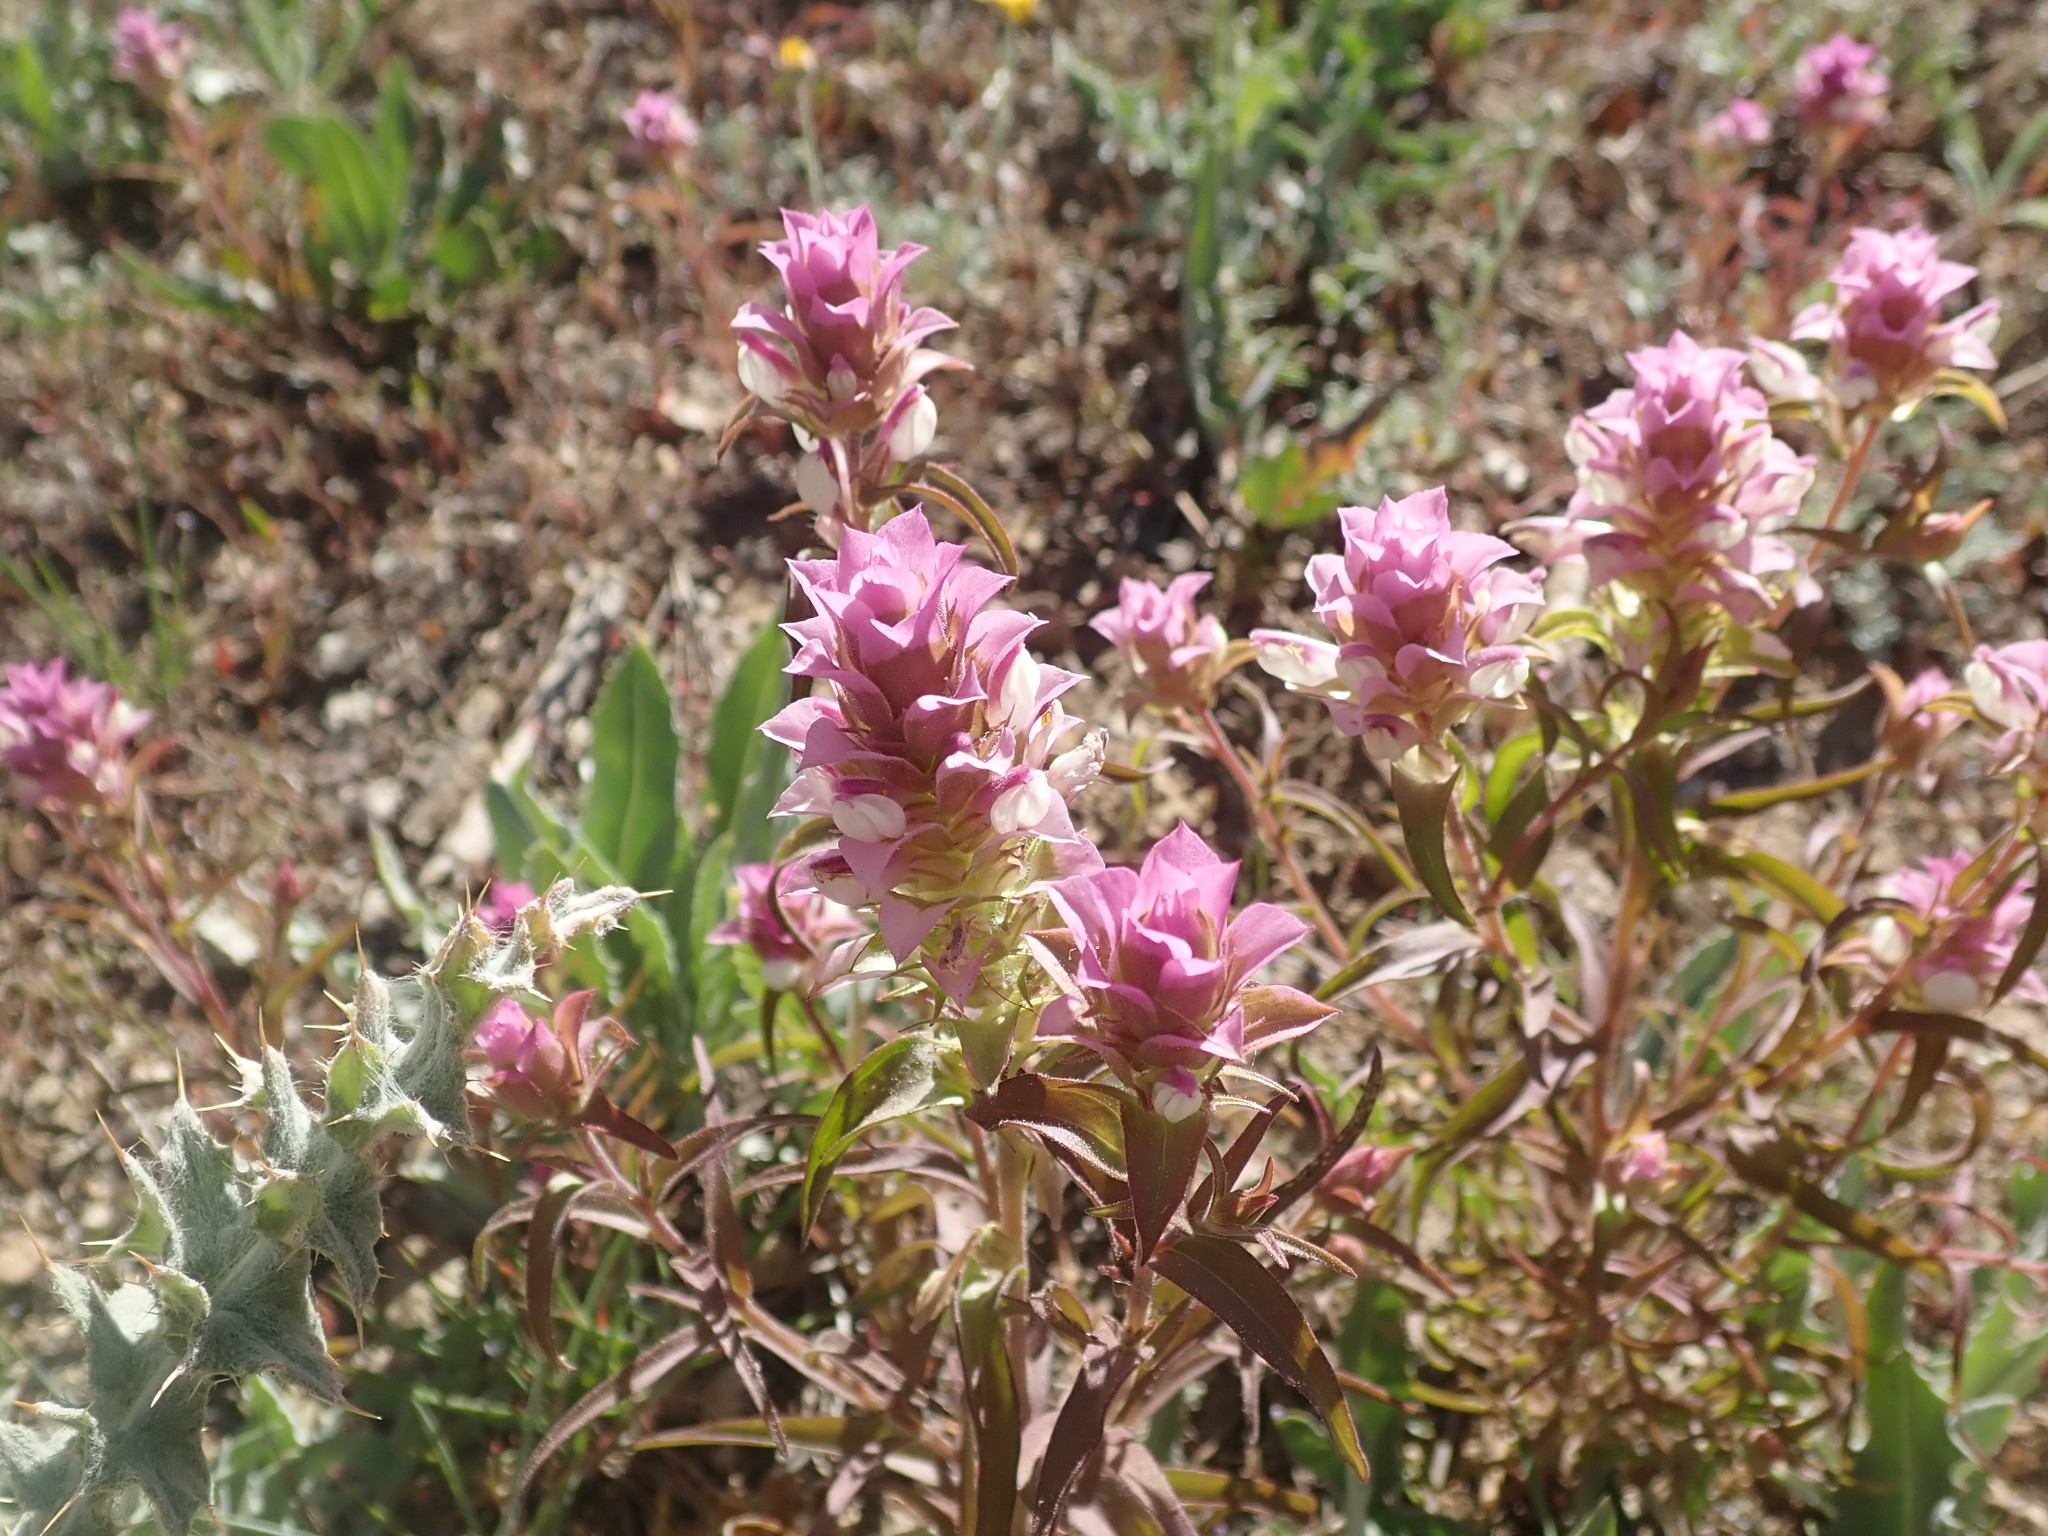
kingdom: Plantae
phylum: Tracheophyta
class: Magnoliopsida
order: Lamiales
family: Orobanchaceae
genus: Orthocarpus
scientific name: Orthocarpus cuspidatus
